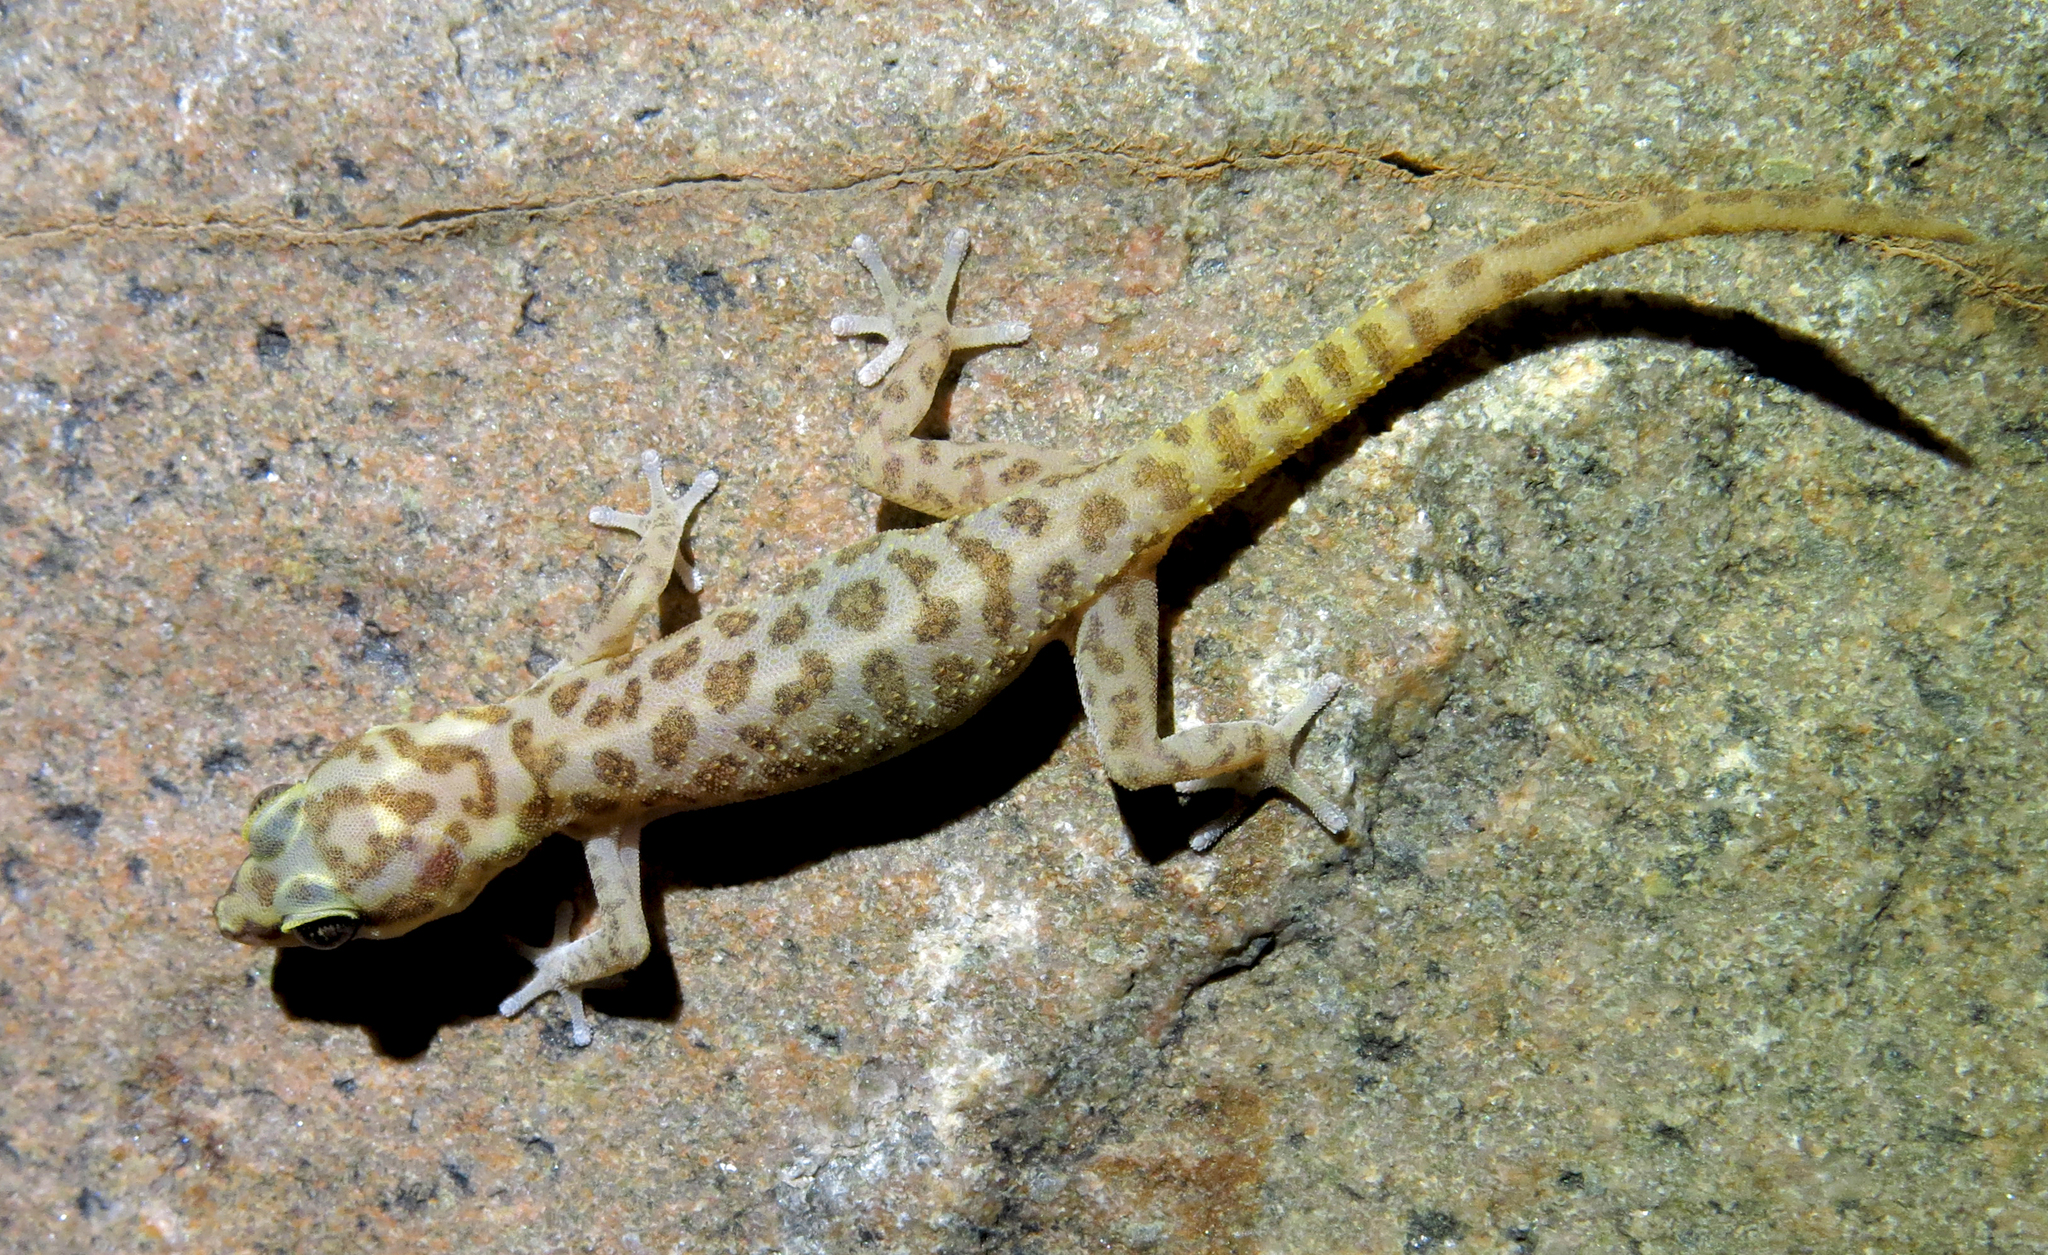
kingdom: Animalia
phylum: Chordata
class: Squamata
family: Gekkonidae
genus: Pachydactylus
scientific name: Pachydactylus carinatus
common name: Richtersveld gecko
